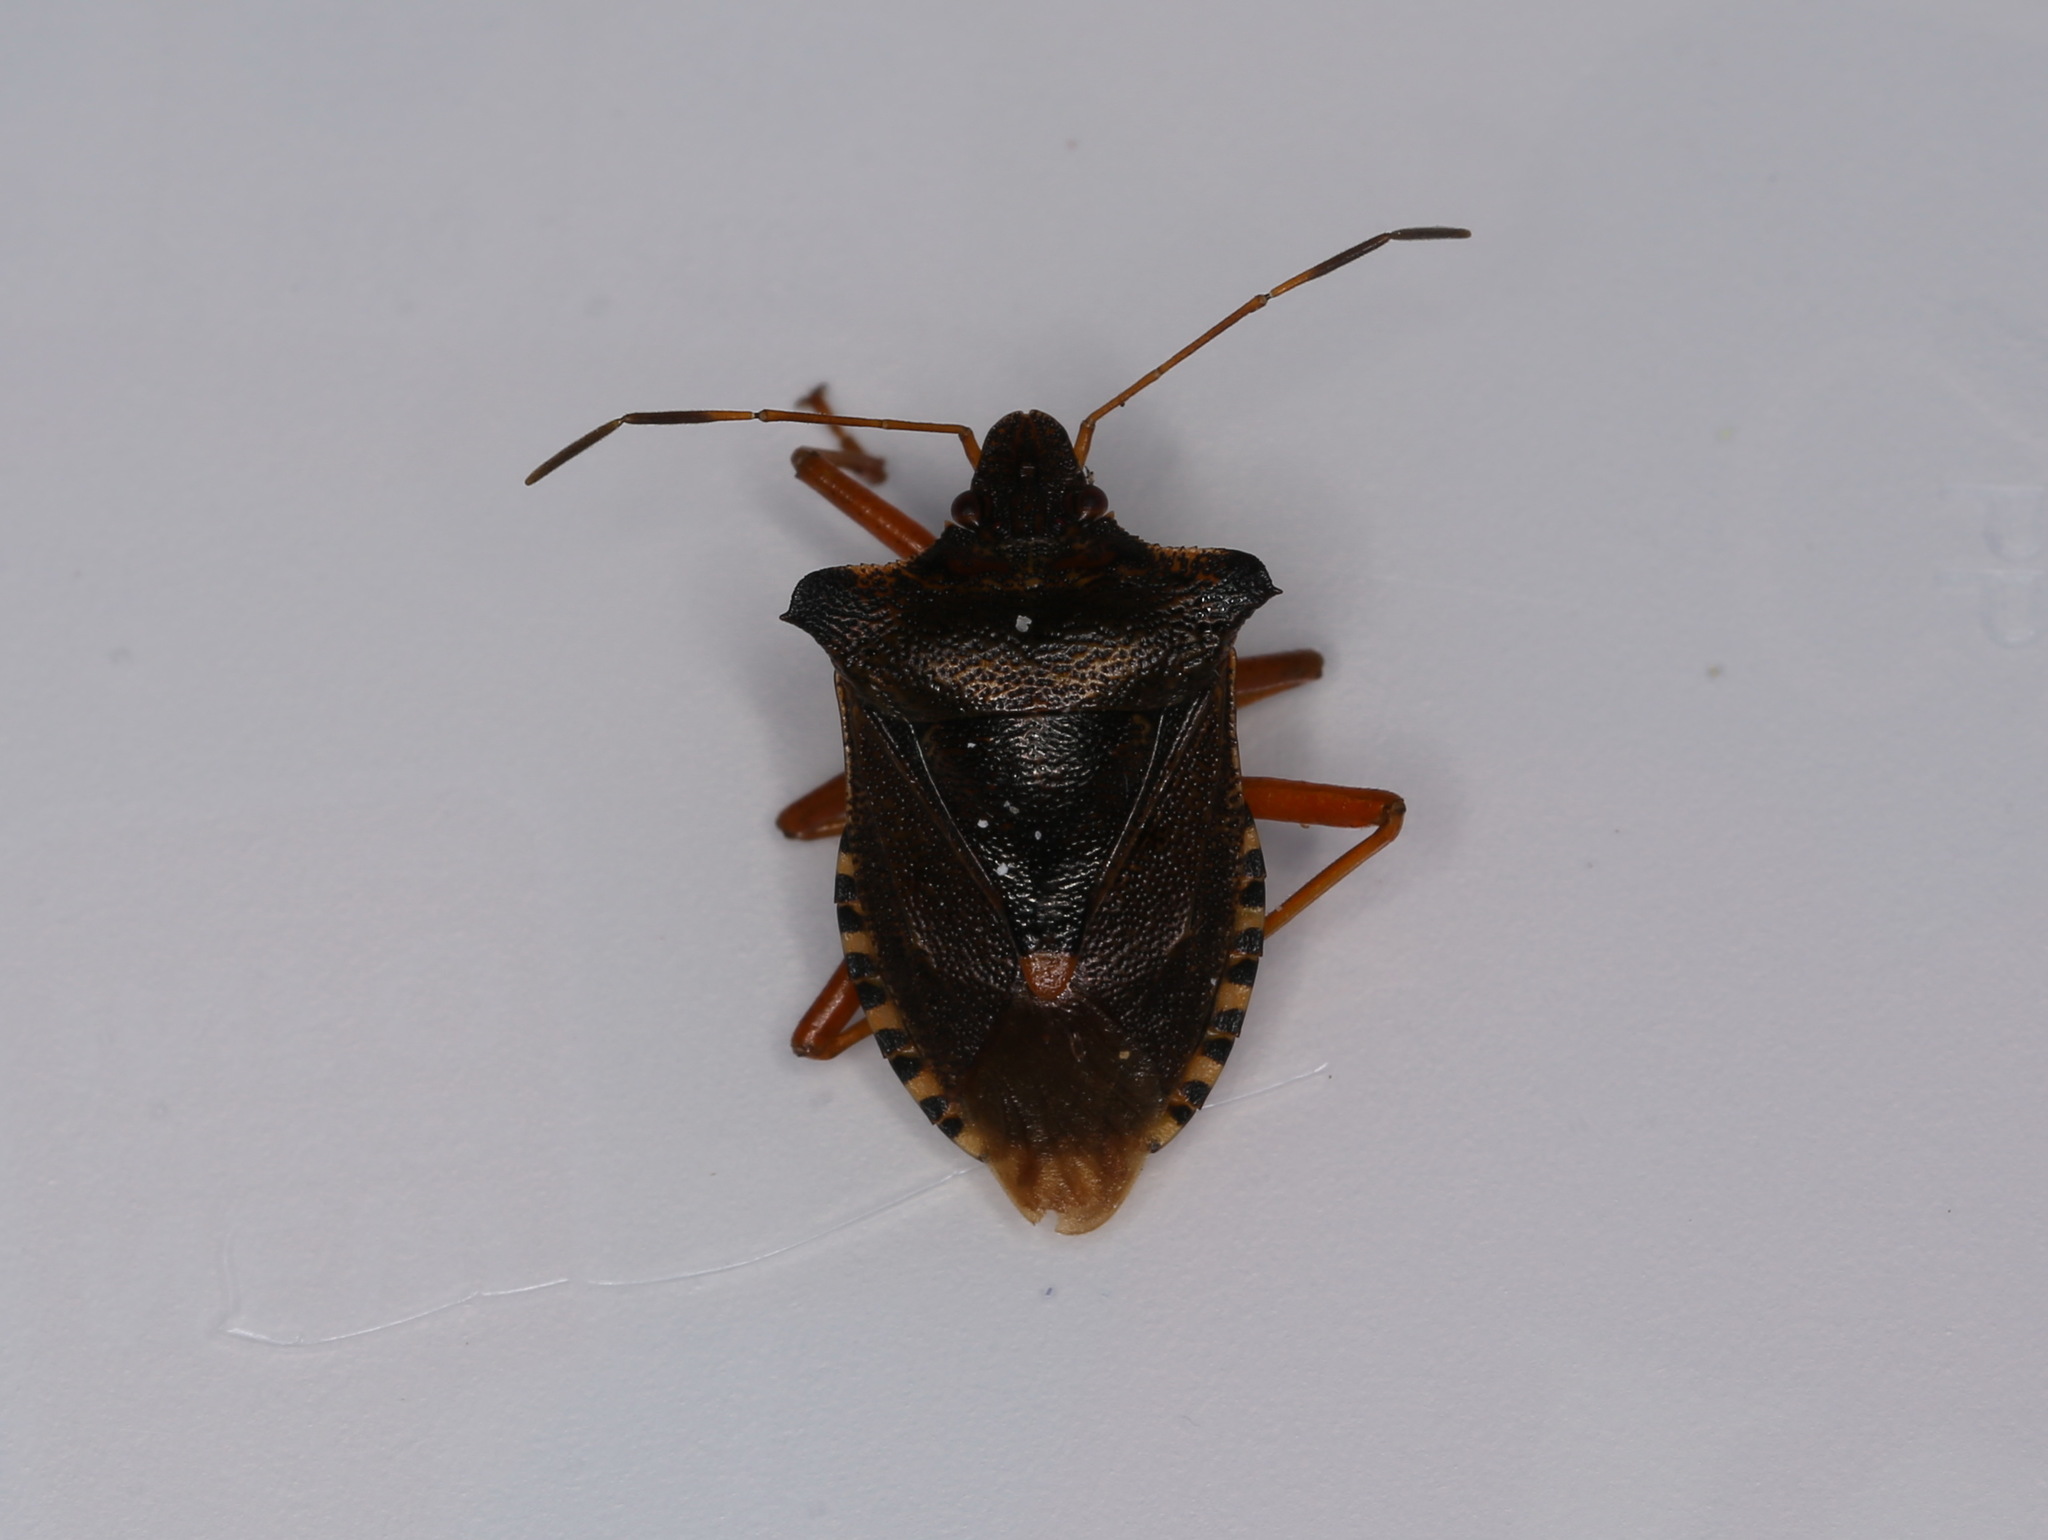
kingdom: Animalia
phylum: Arthropoda
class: Insecta
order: Hemiptera
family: Pentatomidae
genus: Pentatoma
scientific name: Pentatoma rufipes
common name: Forest bug
